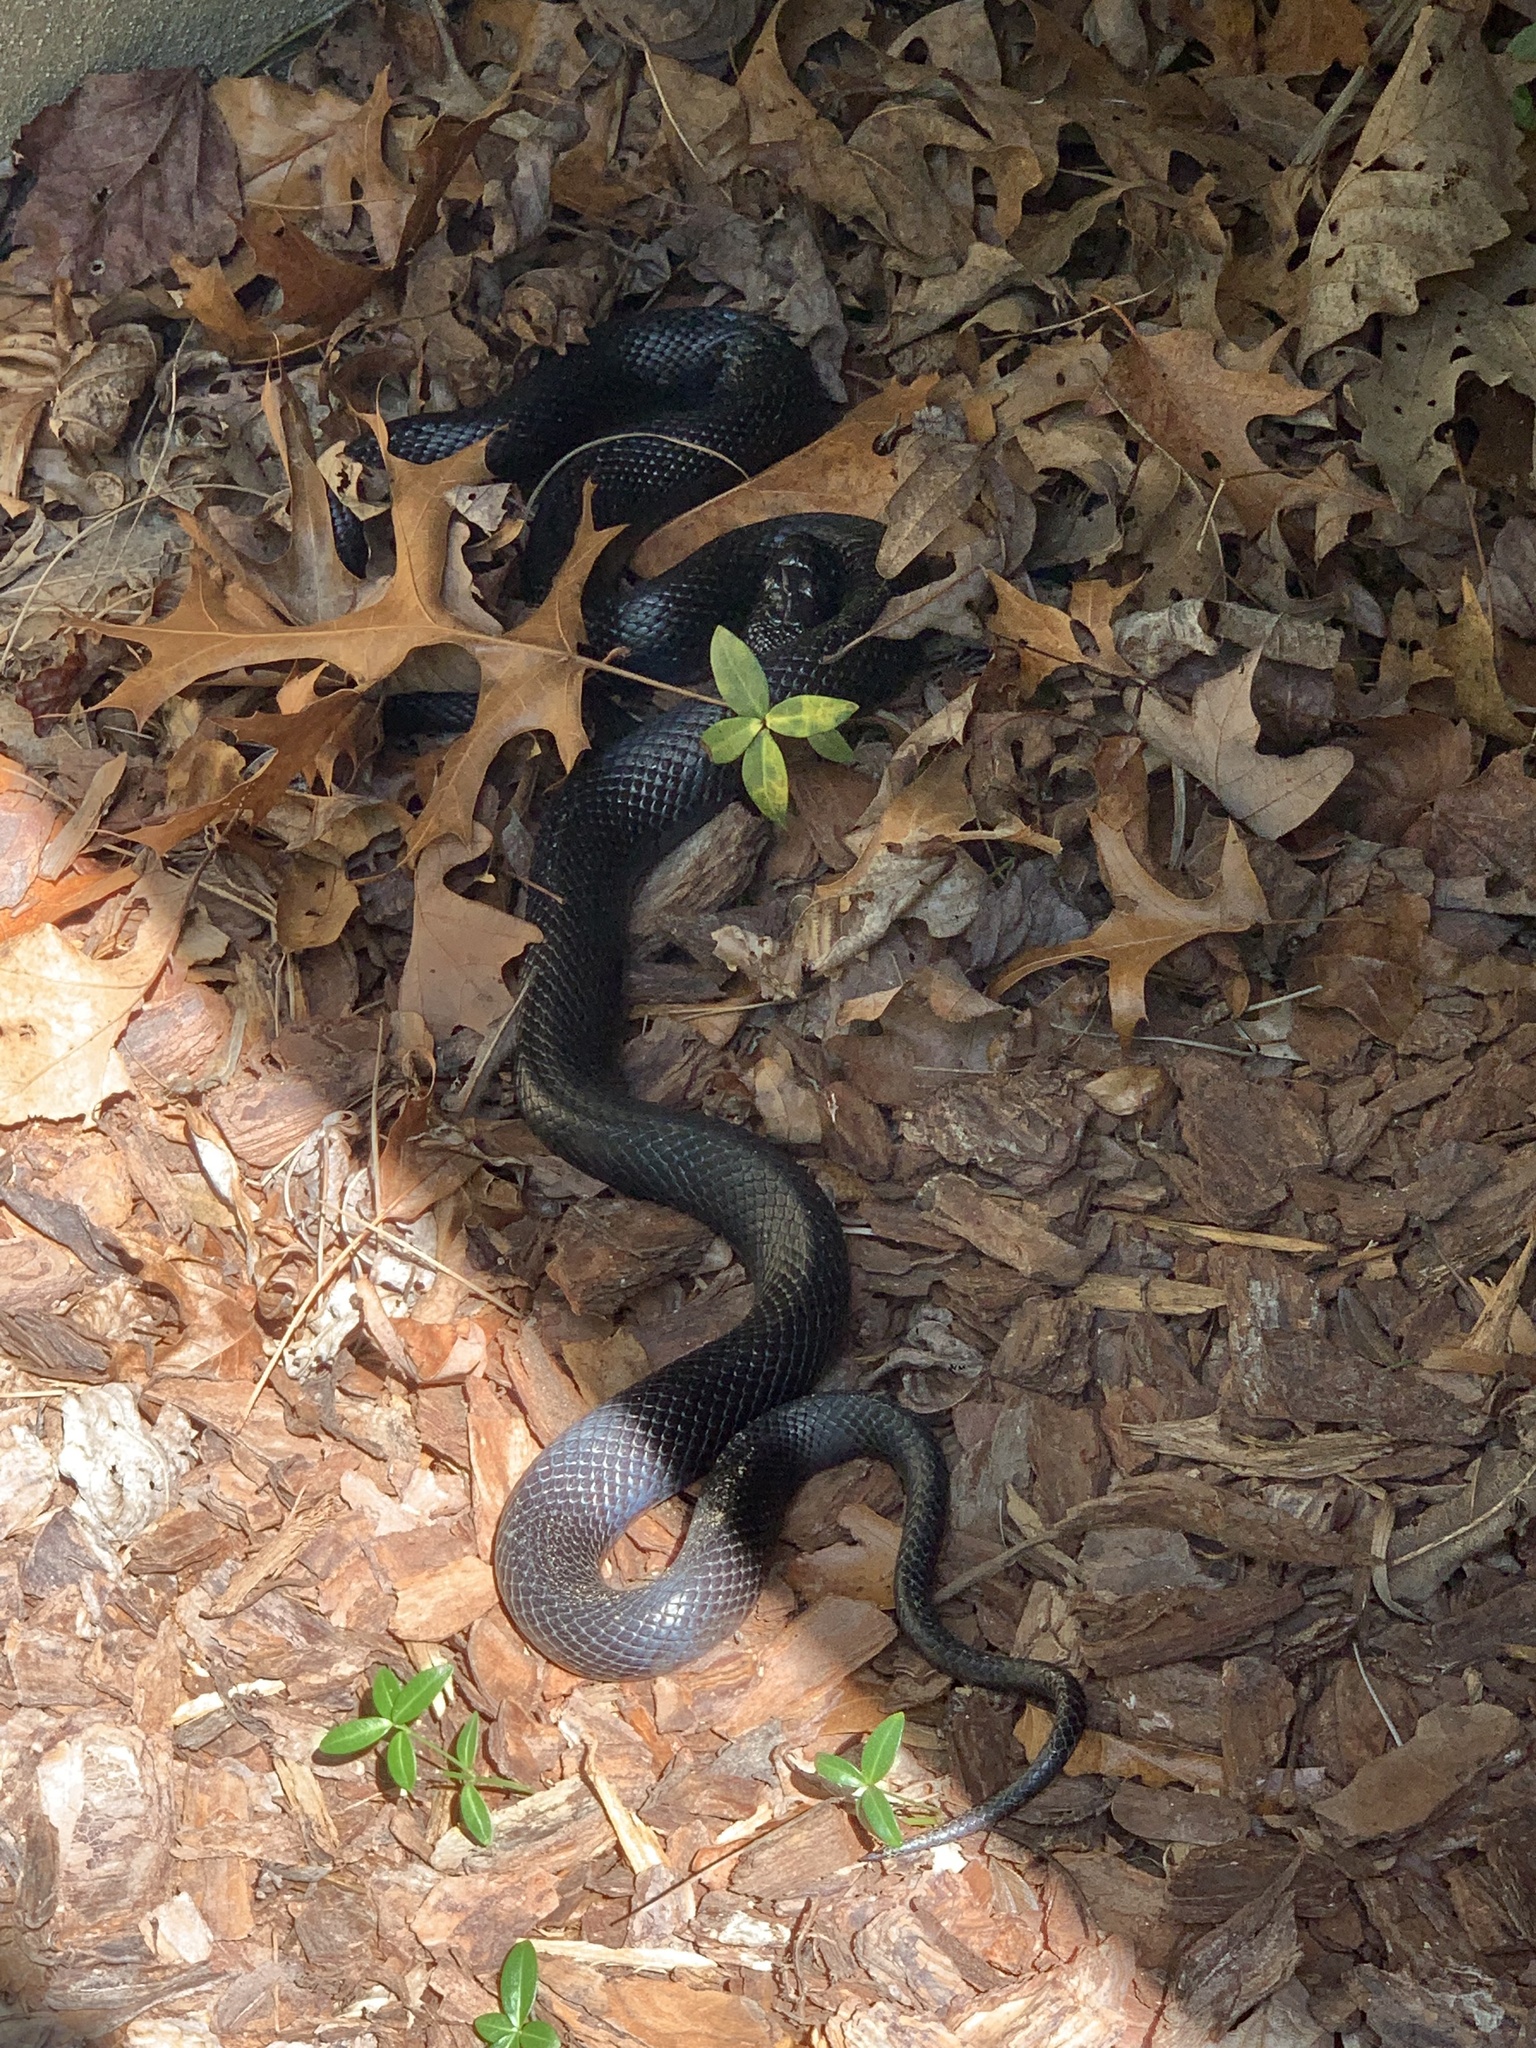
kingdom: Animalia
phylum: Chordata
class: Squamata
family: Colubridae
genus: Pantherophis
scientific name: Pantherophis
